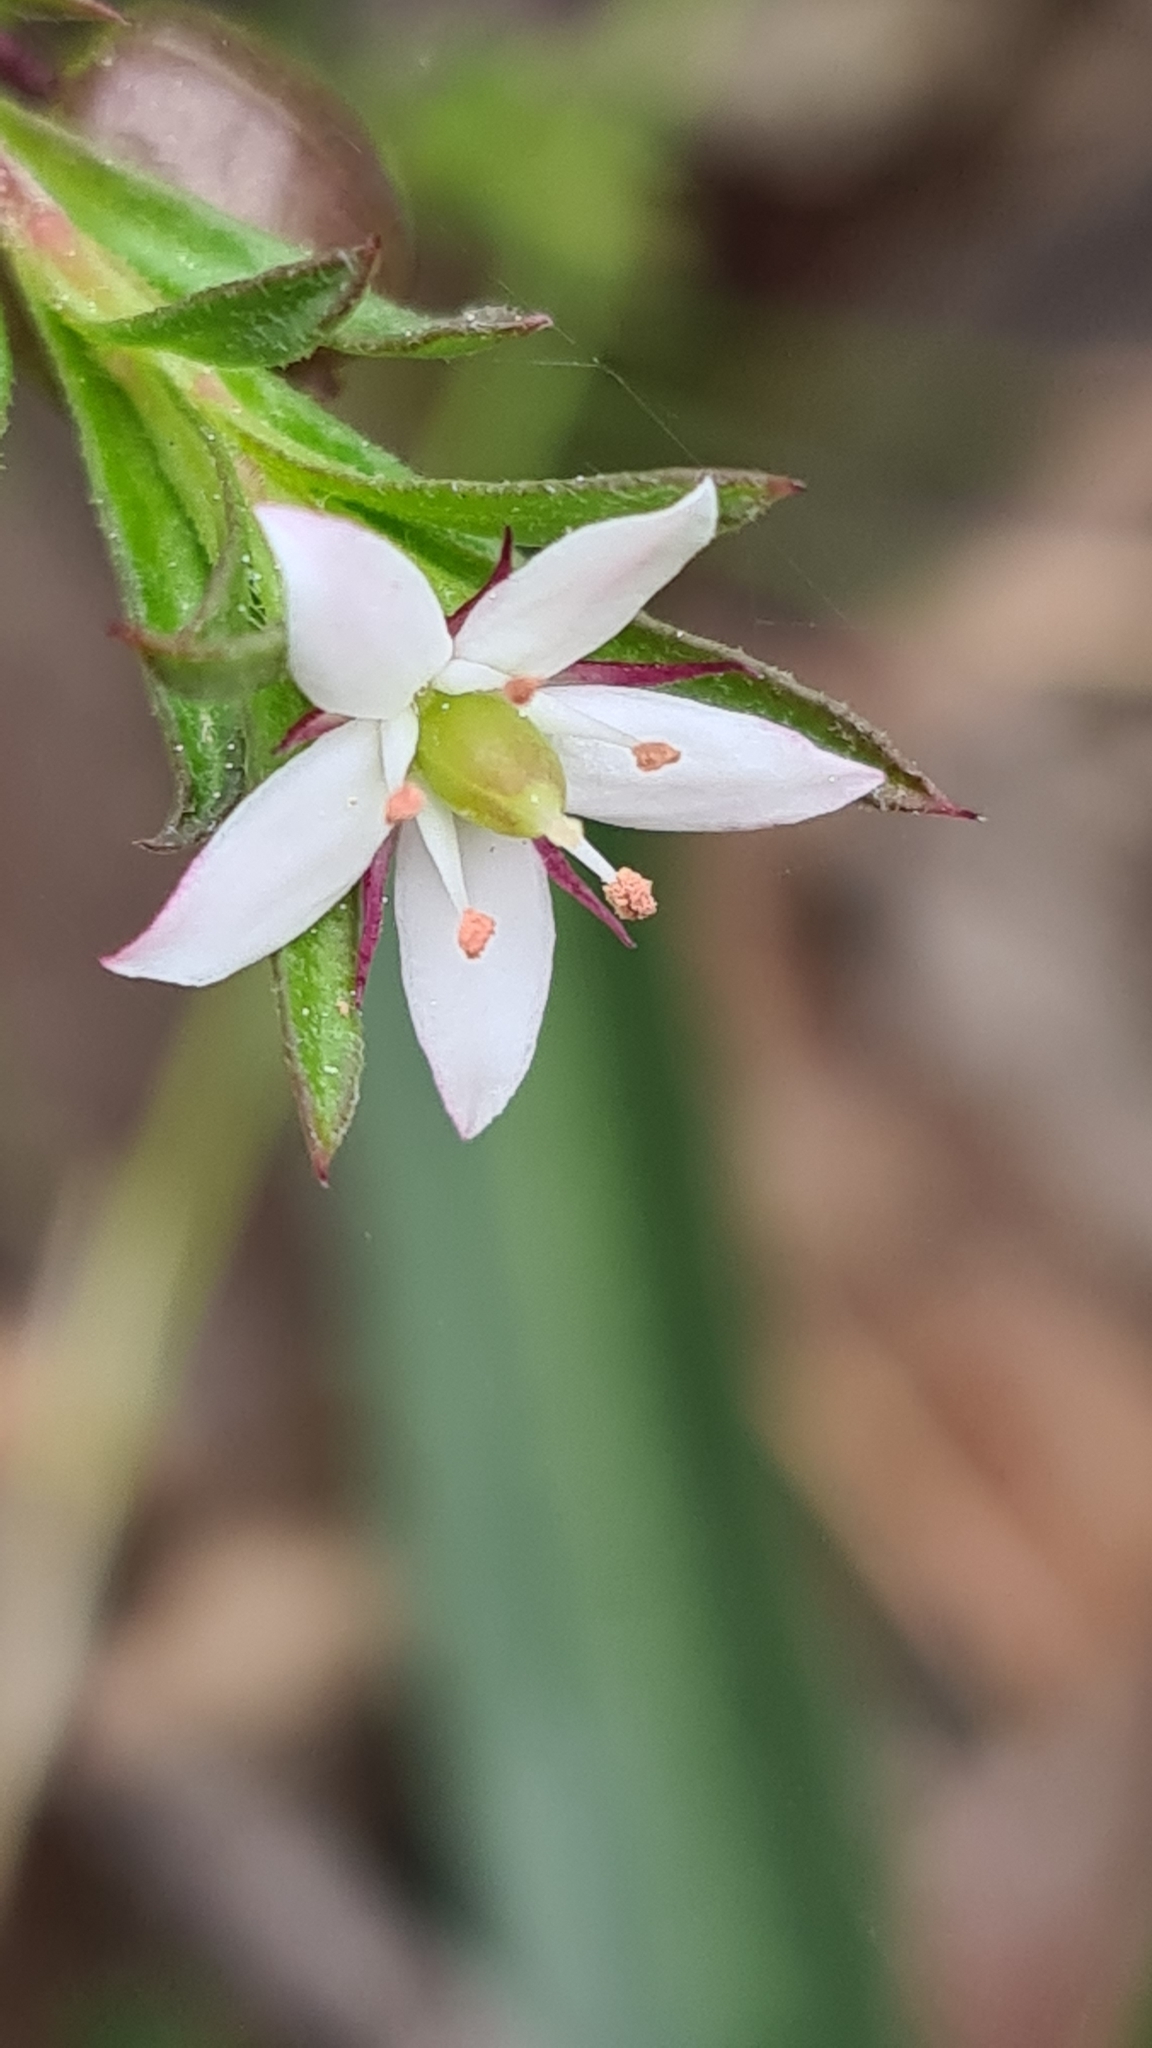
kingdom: Plantae
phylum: Tracheophyta
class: Magnoliopsida
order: Apiales
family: Pittosporaceae
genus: Rhytidosporum
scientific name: Rhytidosporum procumbens
